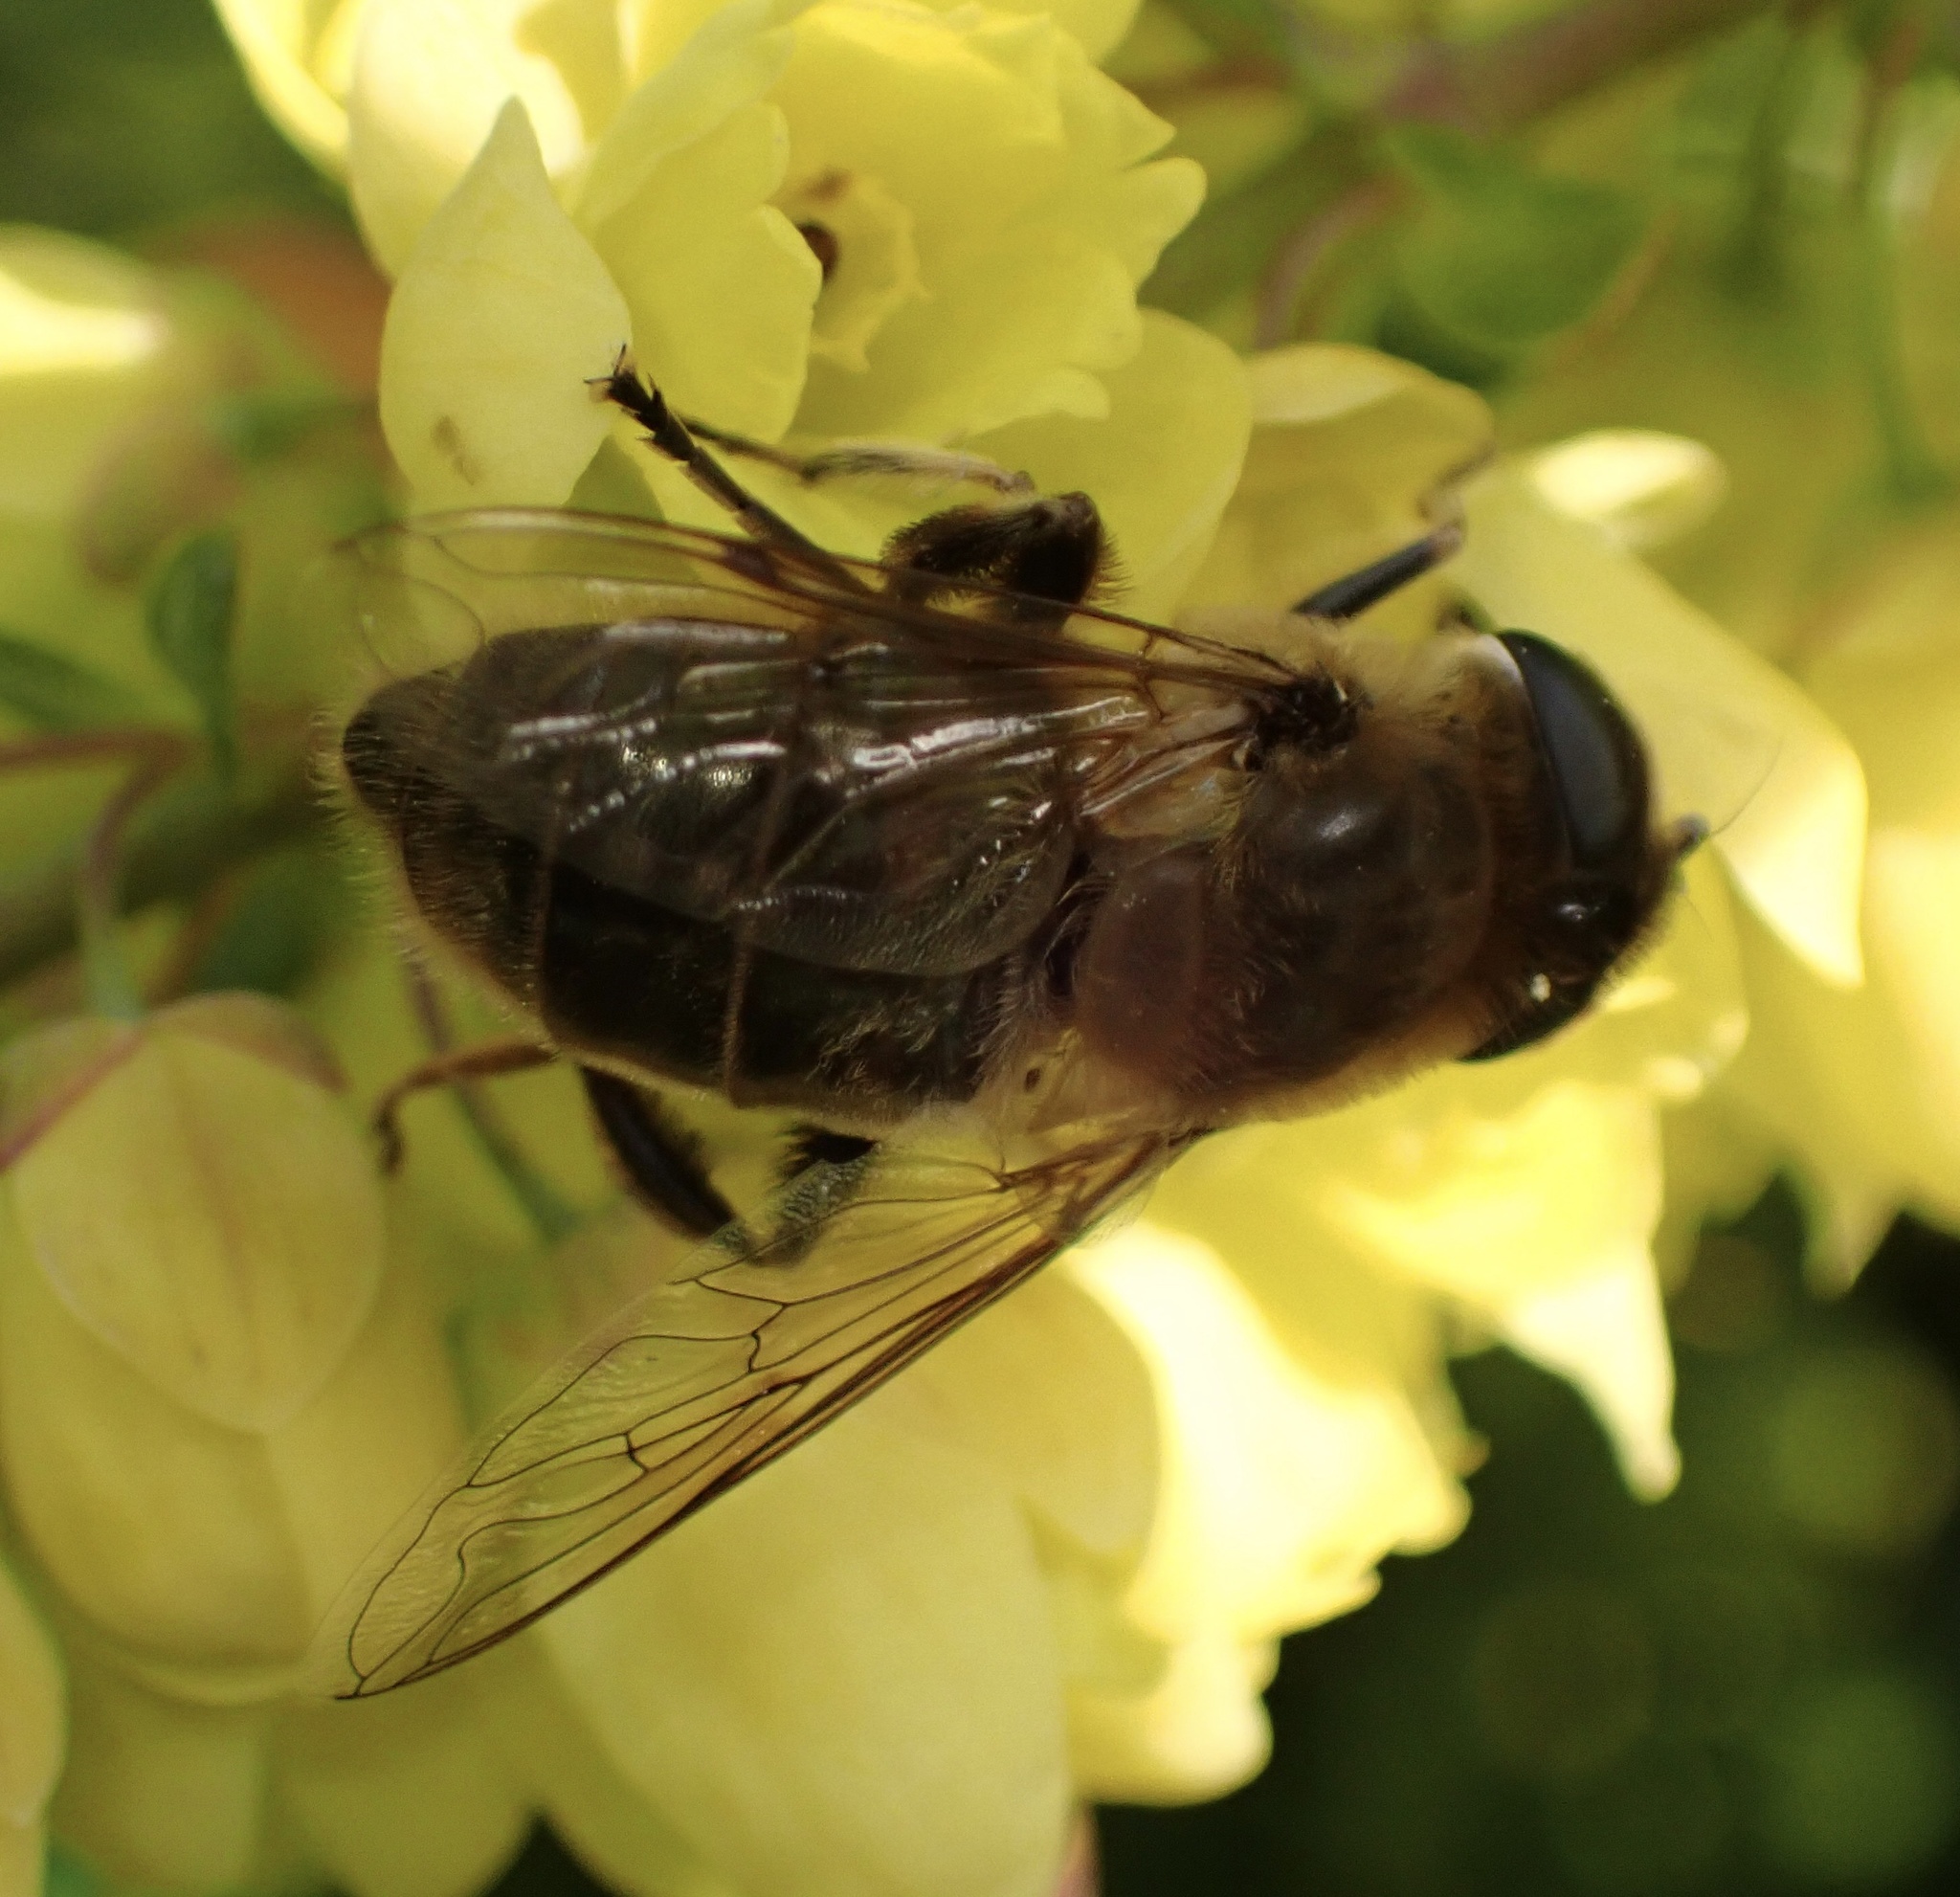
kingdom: Animalia
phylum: Arthropoda
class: Insecta
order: Diptera
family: Syrphidae
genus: Eristalis
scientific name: Eristalis tenax
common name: Drone fly
